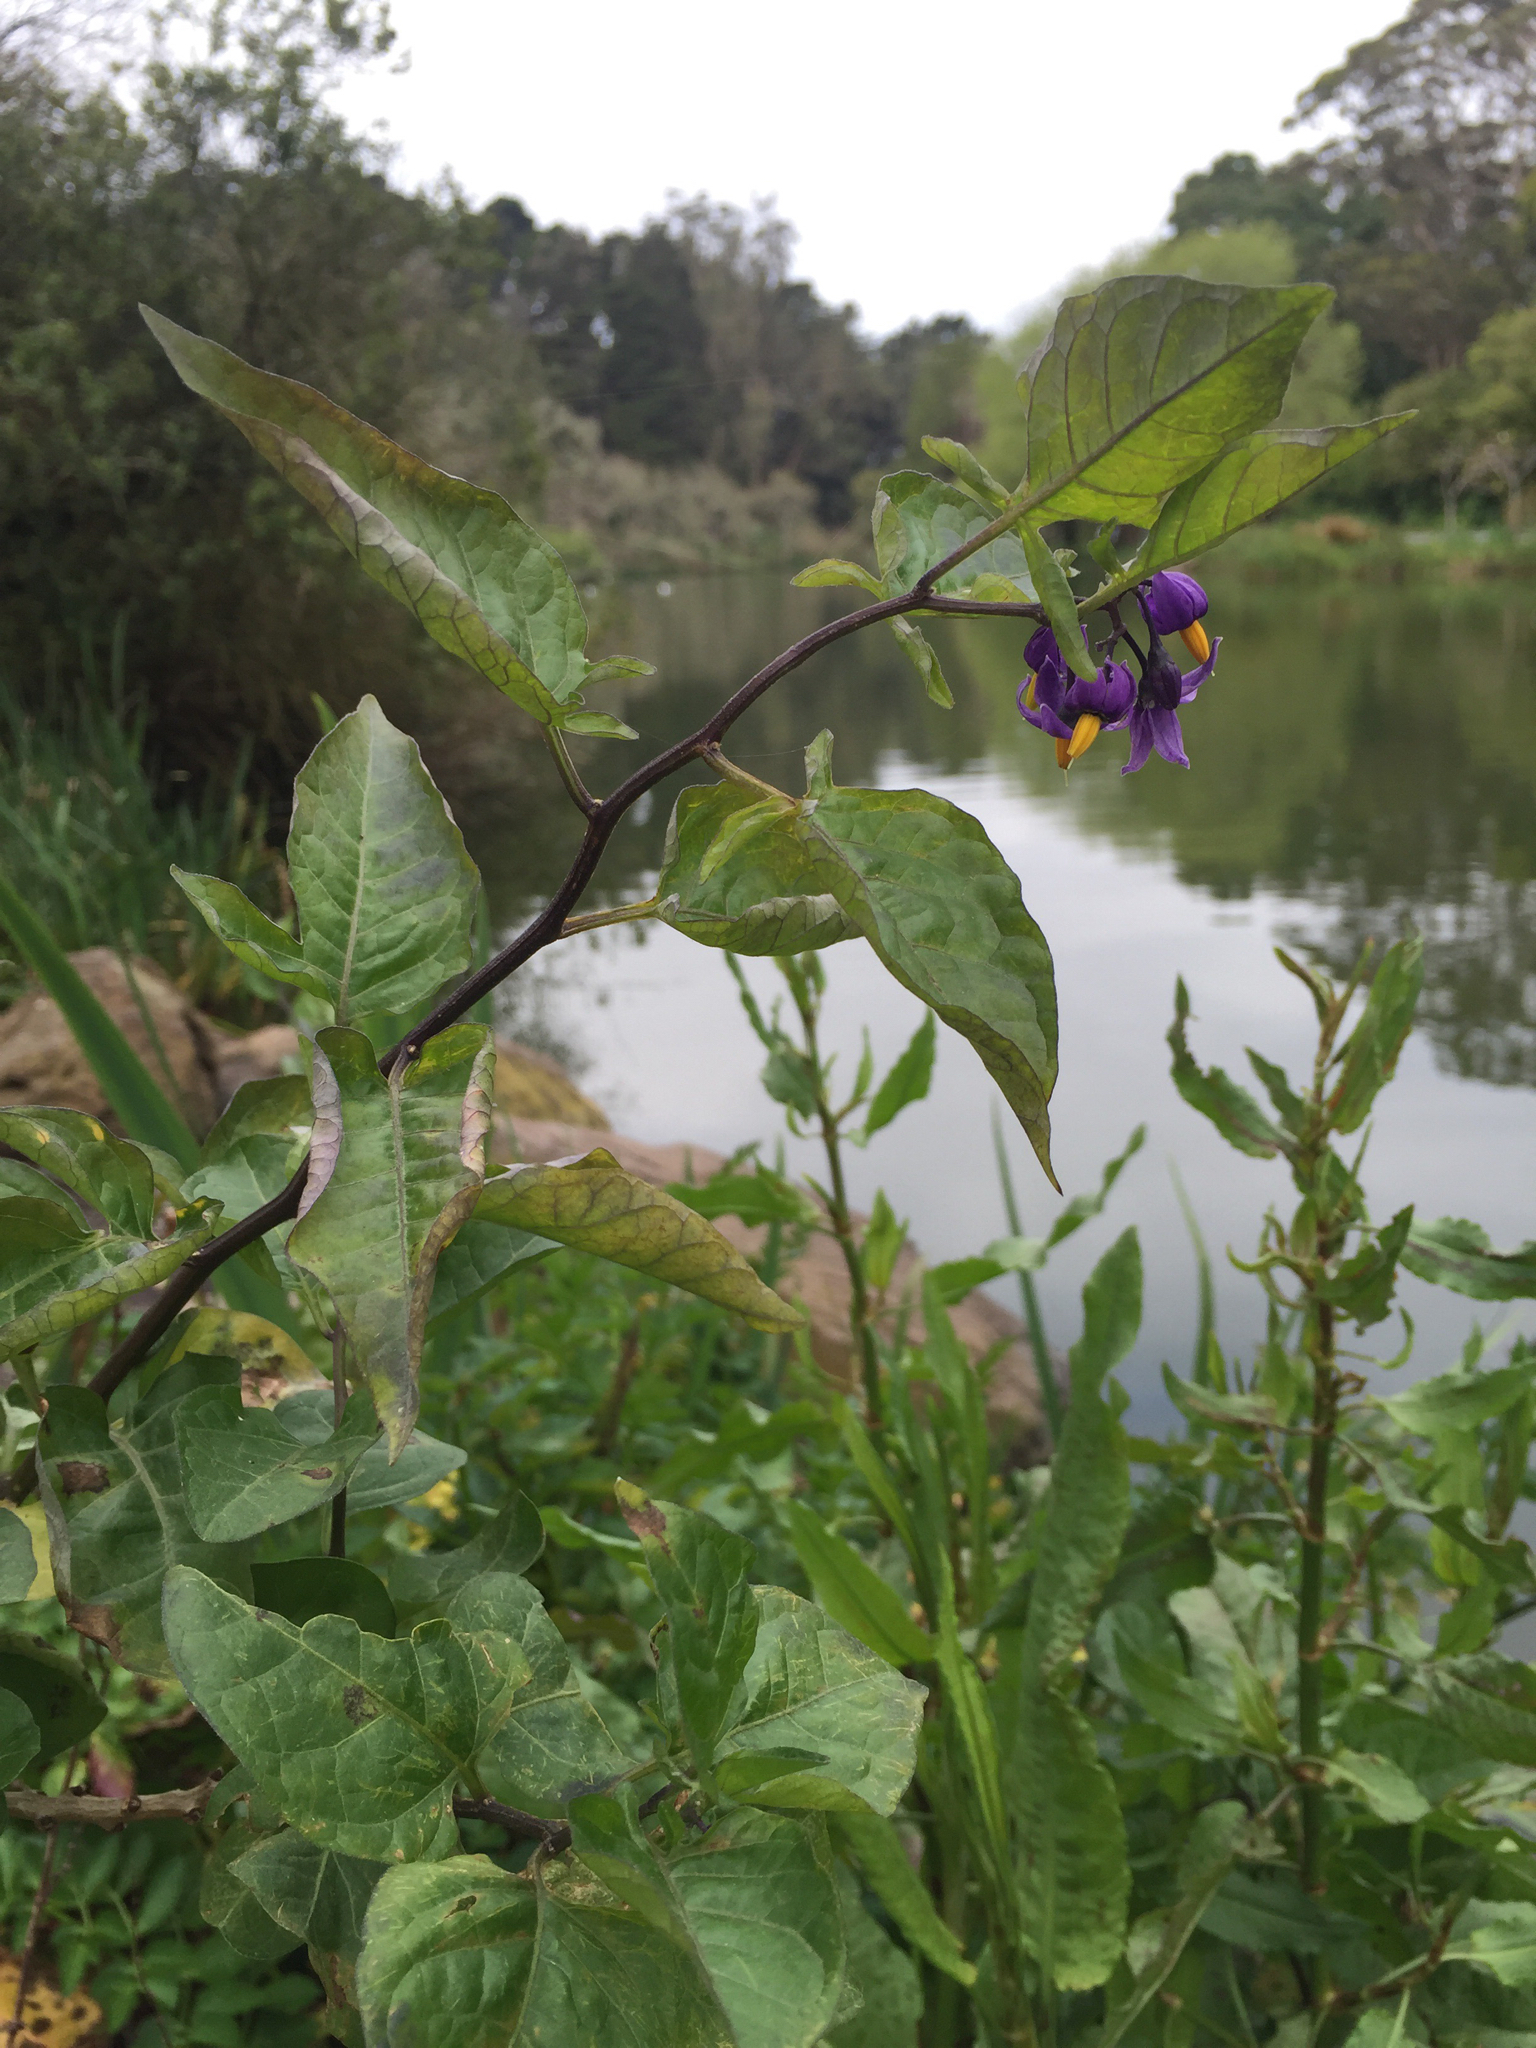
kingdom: Plantae
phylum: Tracheophyta
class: Magnoliopsida
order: Solanales
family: Solanaceae
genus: Solanum
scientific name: Solanum dulcamara
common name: Climbing nightshade
